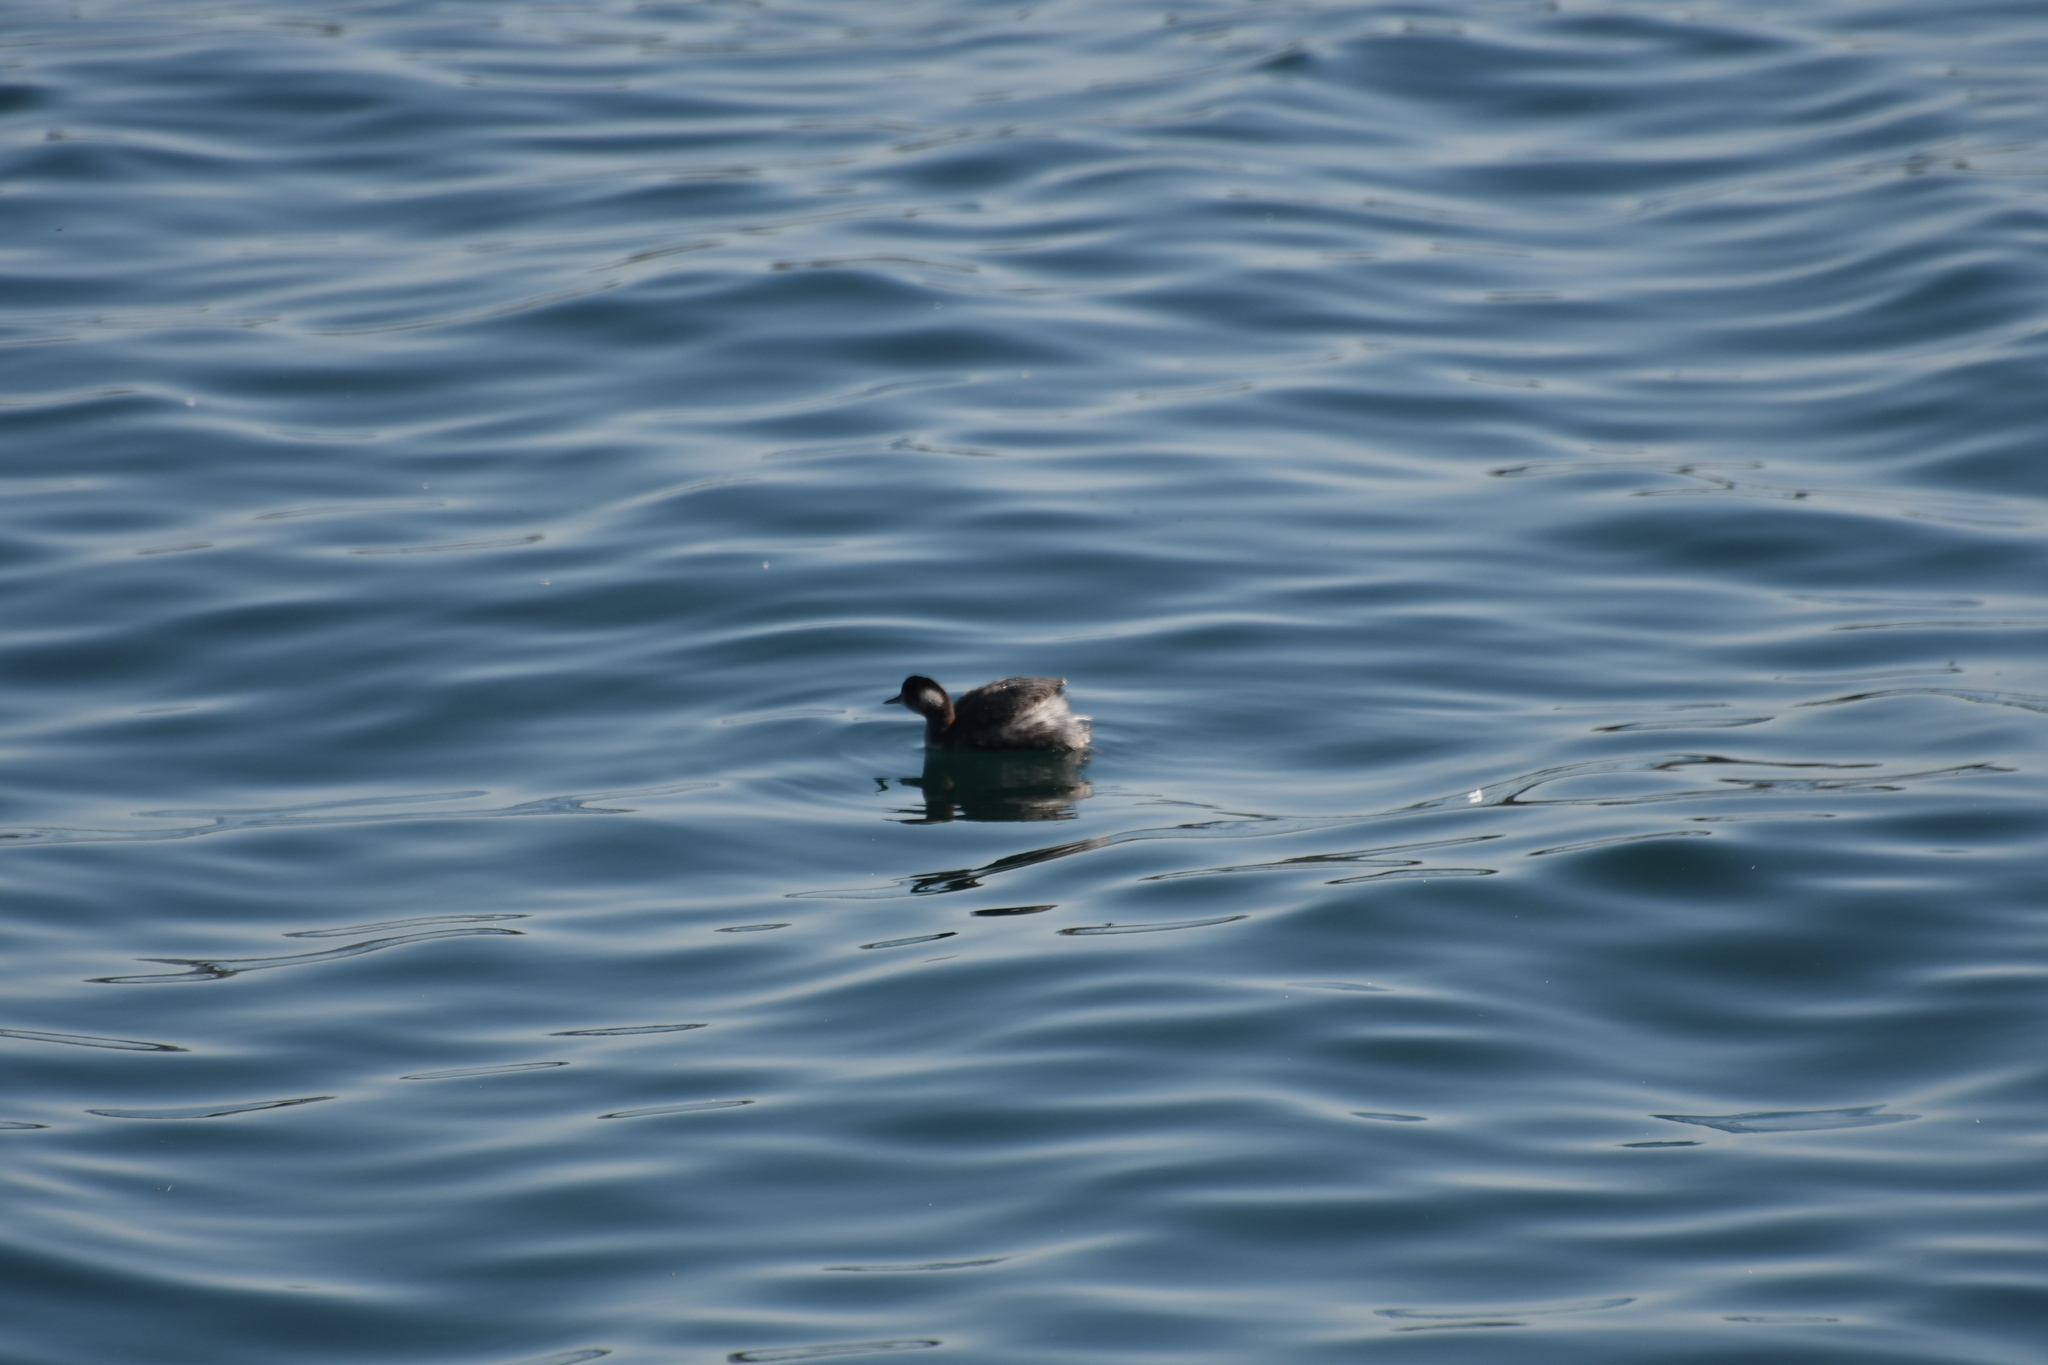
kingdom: Animalia
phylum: Chordata
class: Aves
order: Podicipediformes
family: Podicipedidae
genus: Podiceps
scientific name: Podiceps nigricollis
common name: Black-necked grebe
